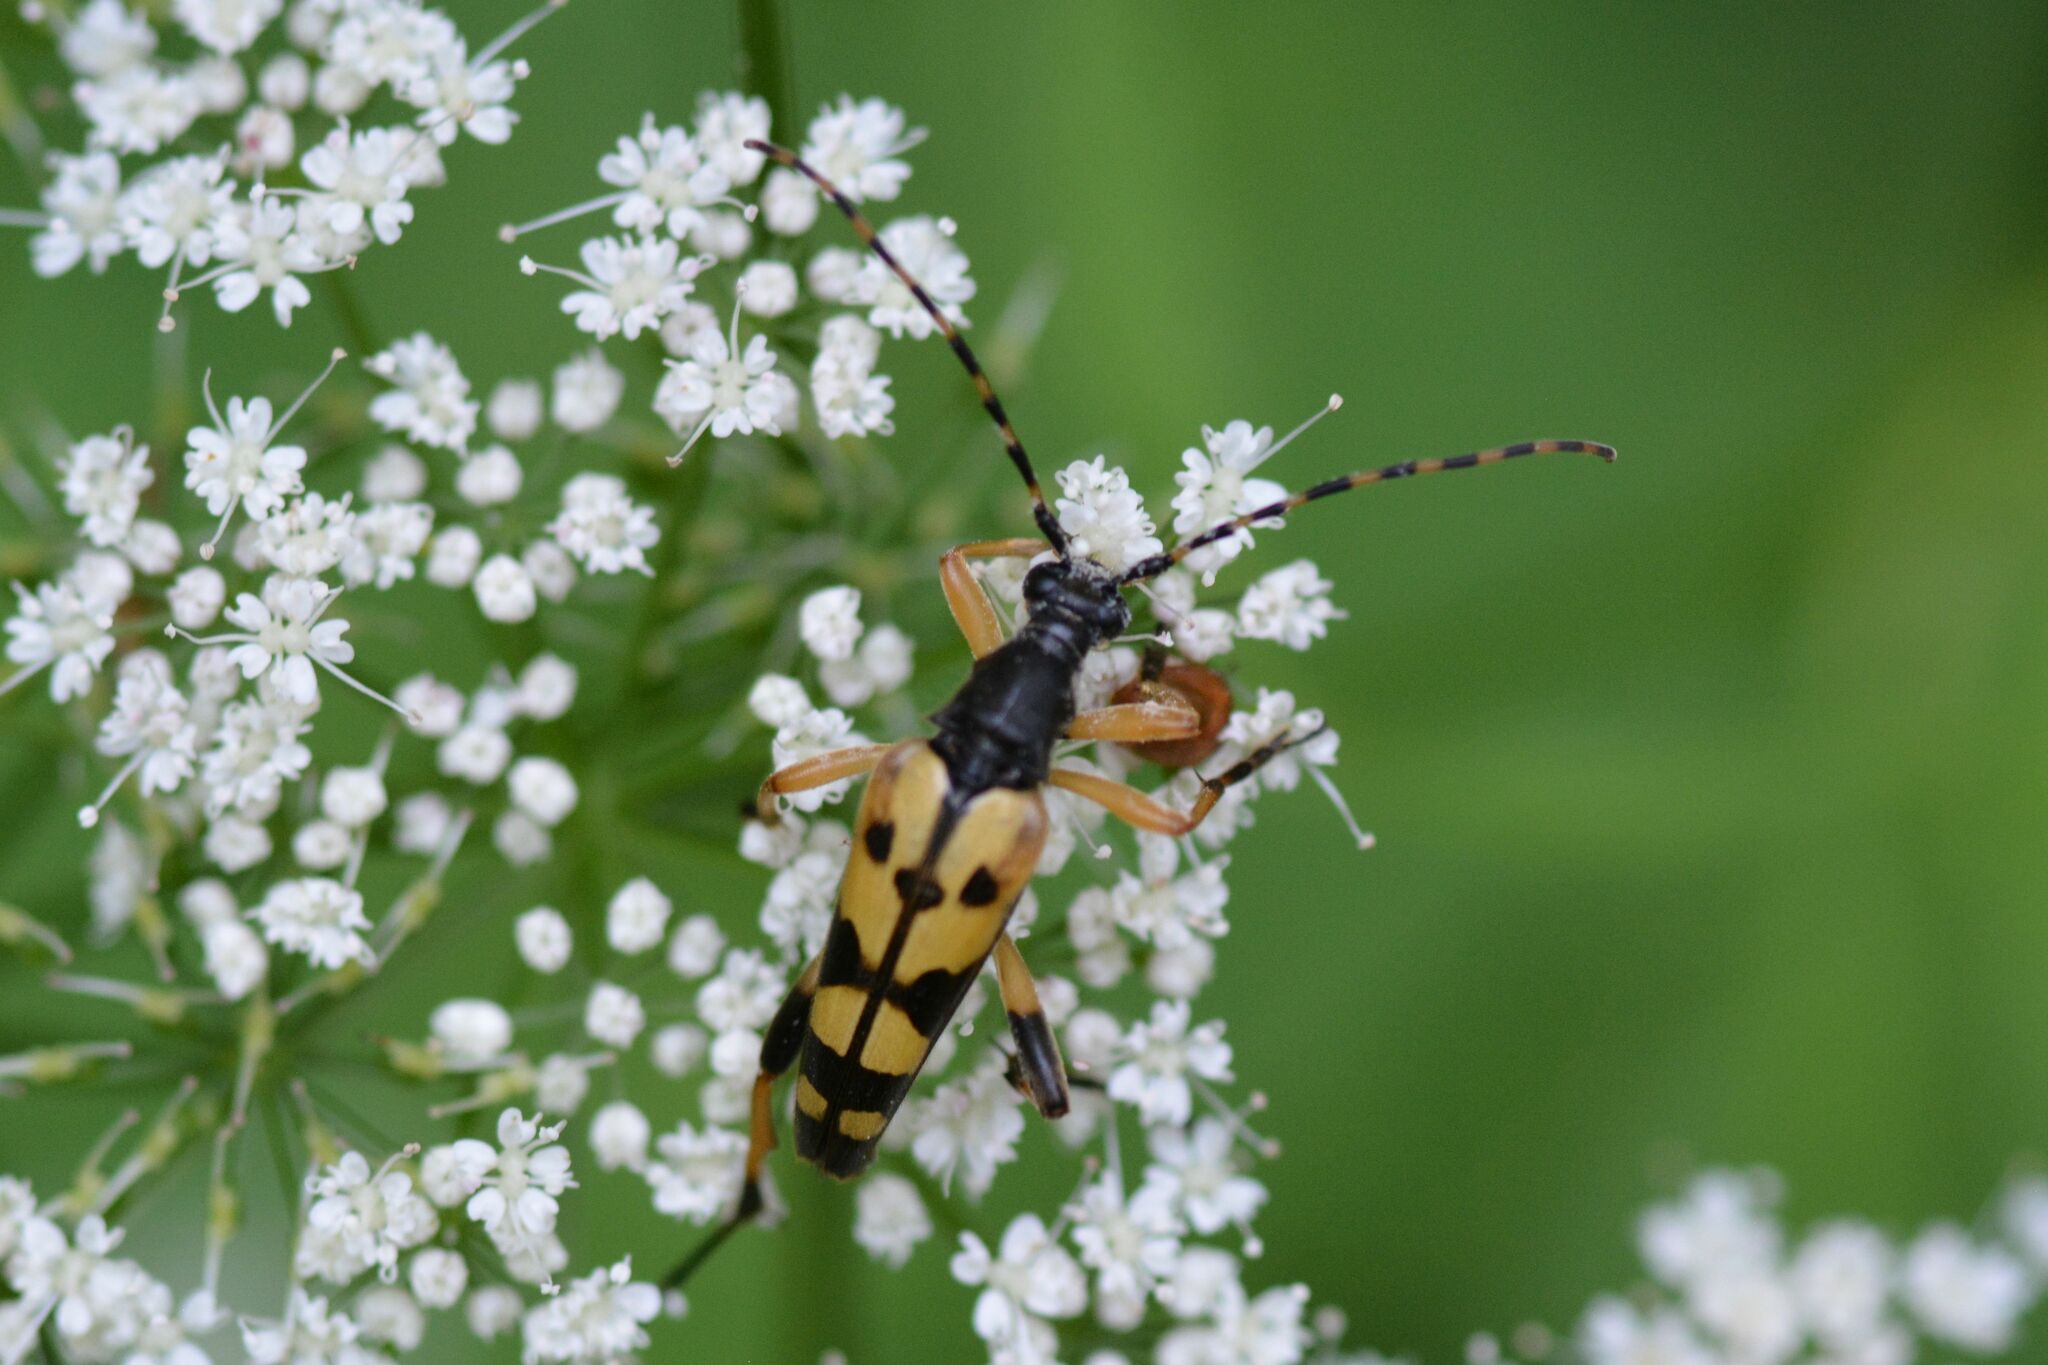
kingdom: Animalia
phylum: Arthropoda
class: Insecta
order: Coleoptera
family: Cerambycidae
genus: Rutpela
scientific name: Rutpela maculata
